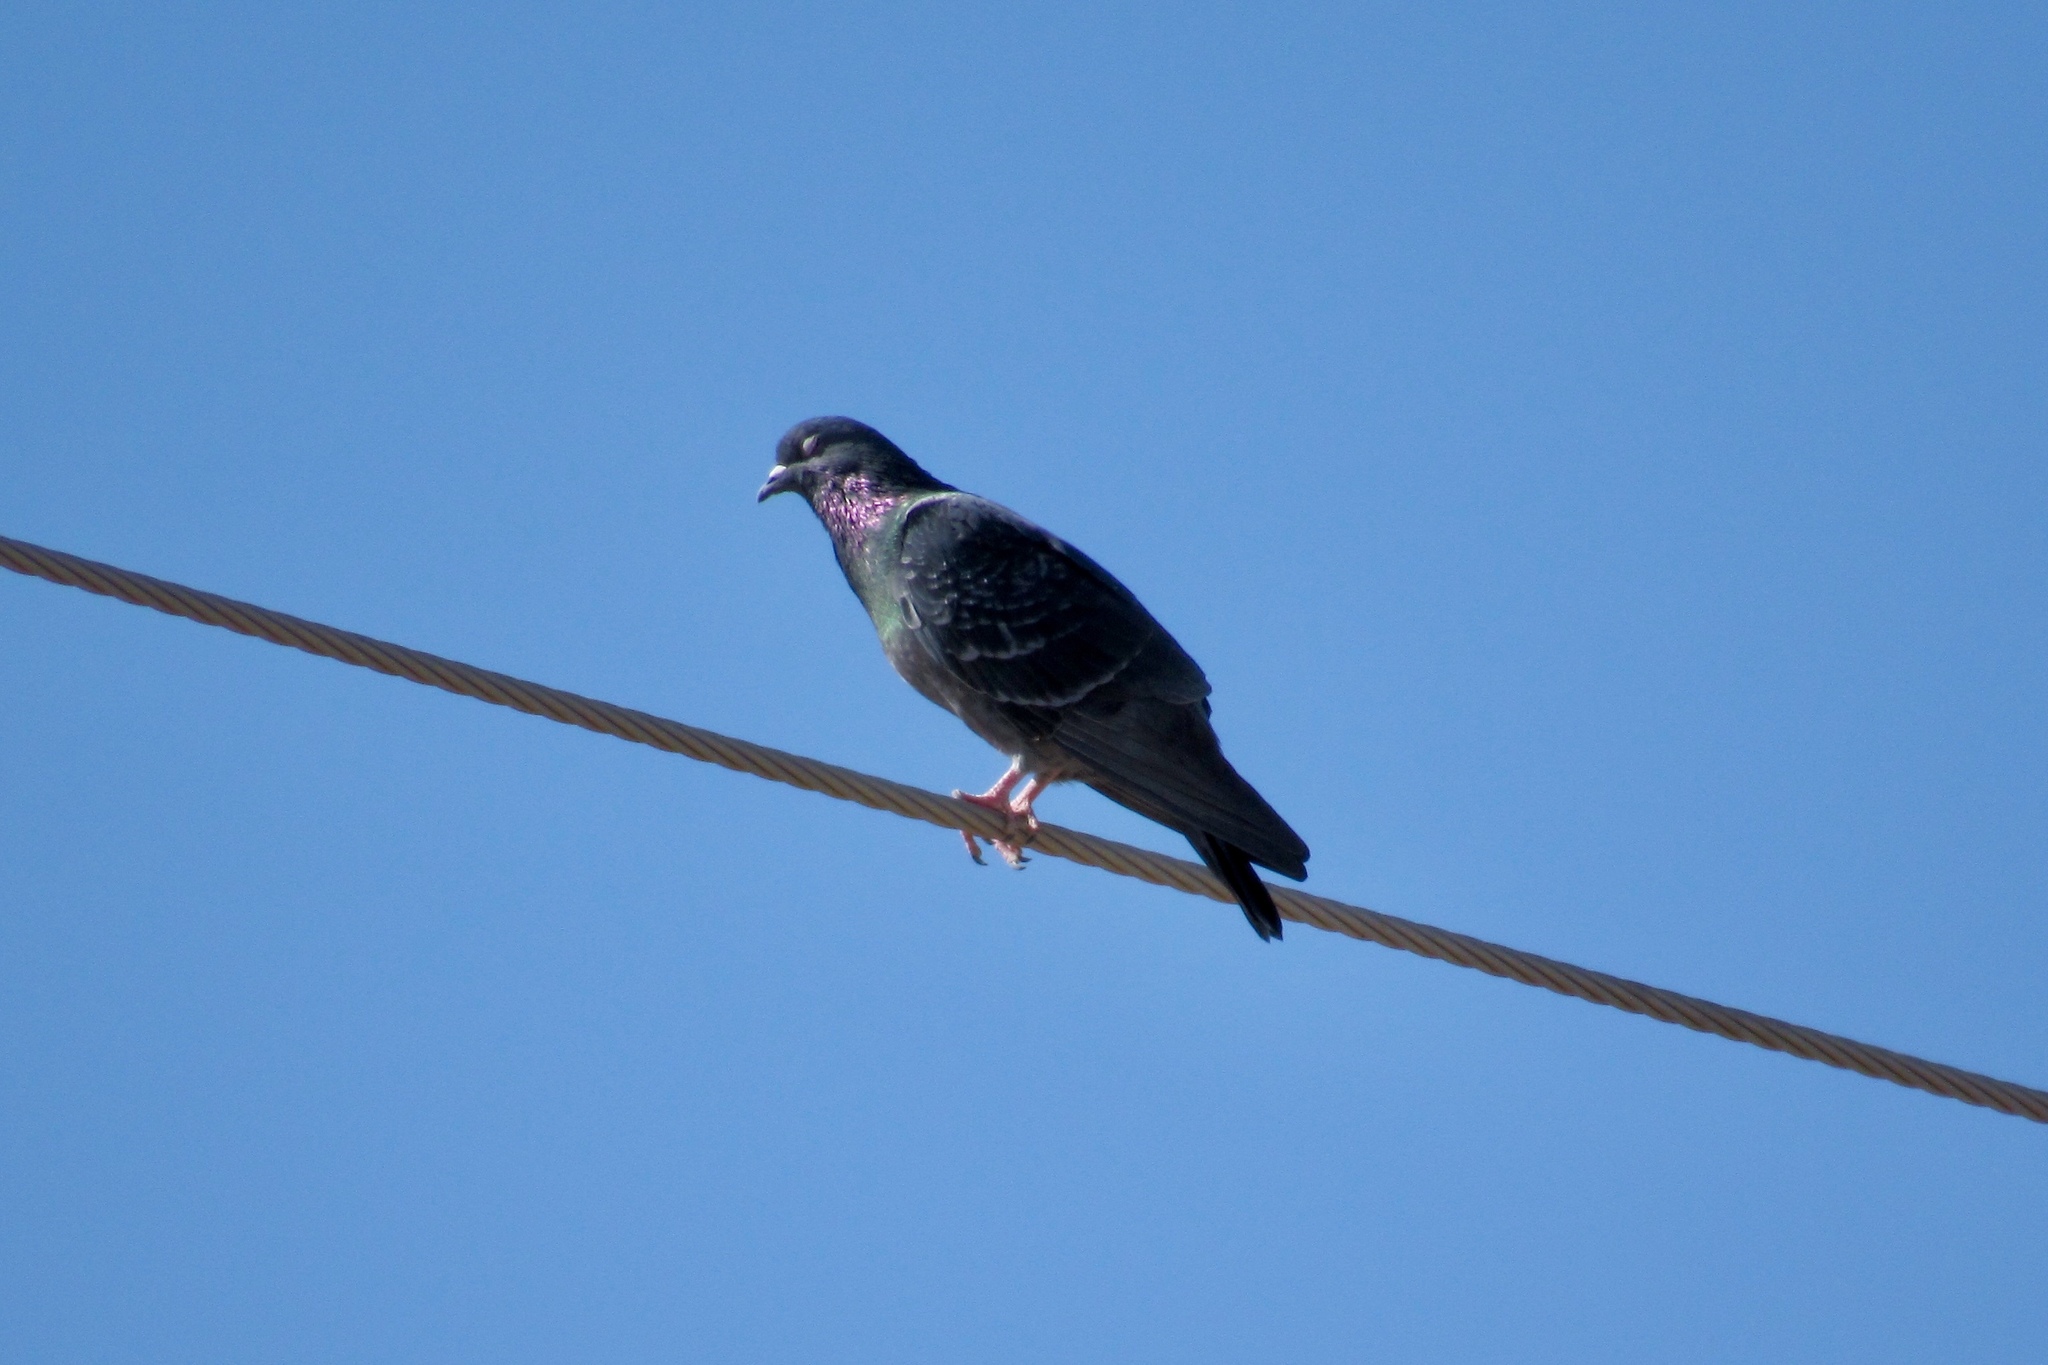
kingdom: Animalia
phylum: Chordata
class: Aves
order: Columbiformes
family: Columbidae
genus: Columba
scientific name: Columba livia
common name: Rock pigeon
